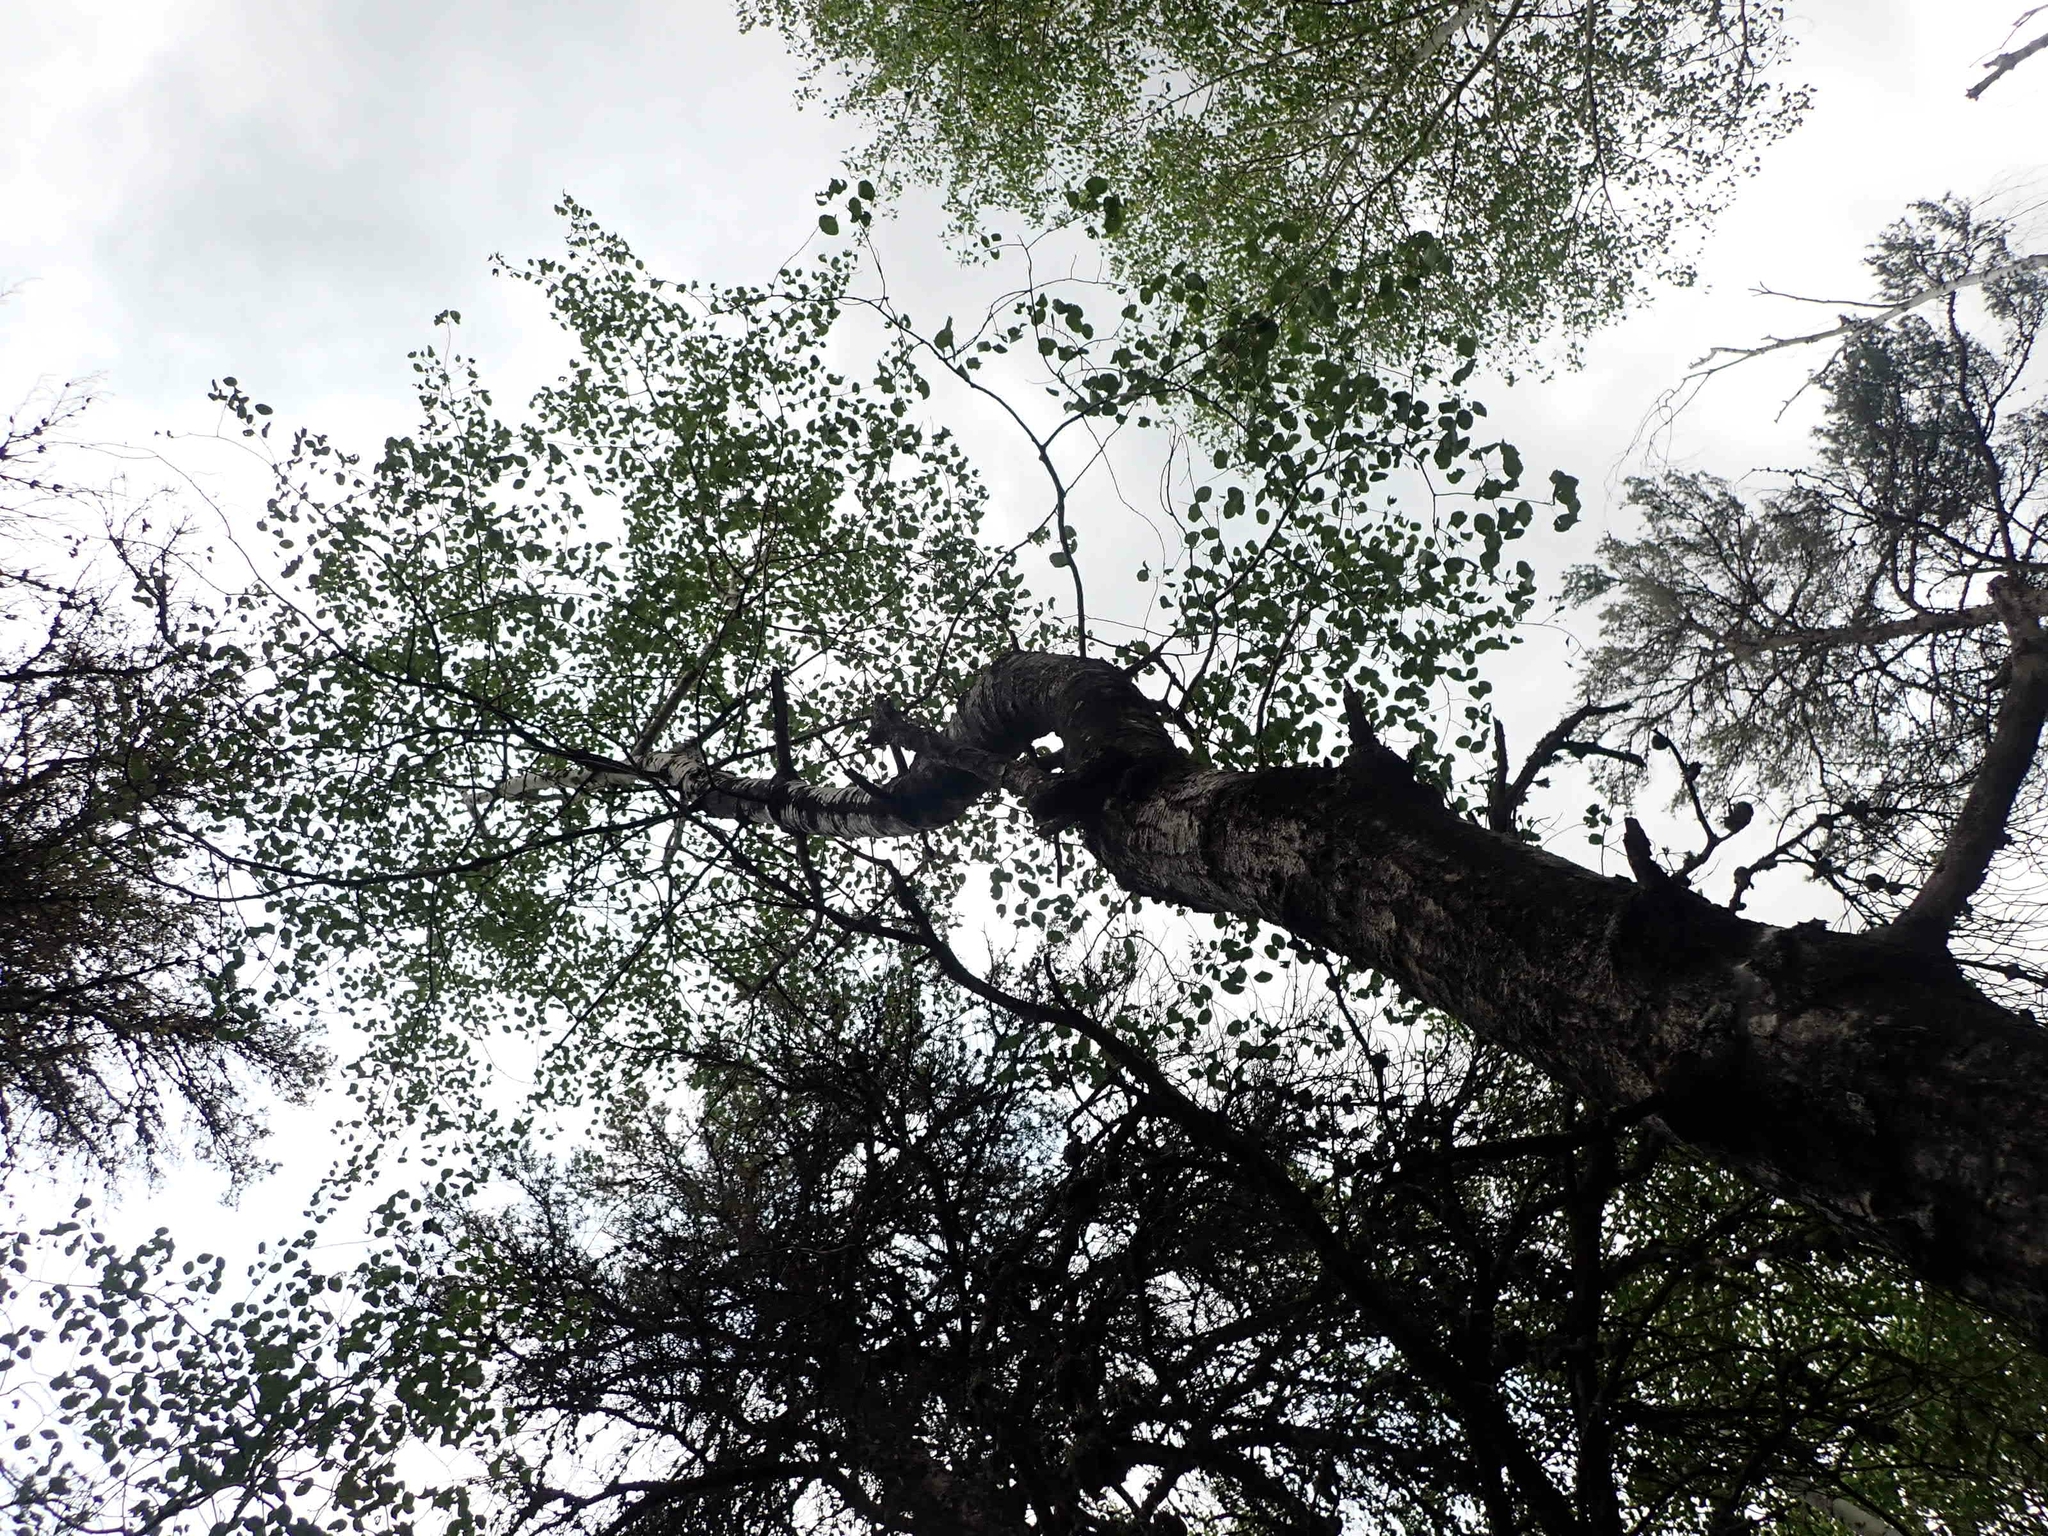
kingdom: Plantae
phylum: Tracheophyta
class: Magnoliopsida
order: Malpighiales
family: Salicaceae
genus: Populus
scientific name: Populus tremuloides
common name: Quaking aspen
